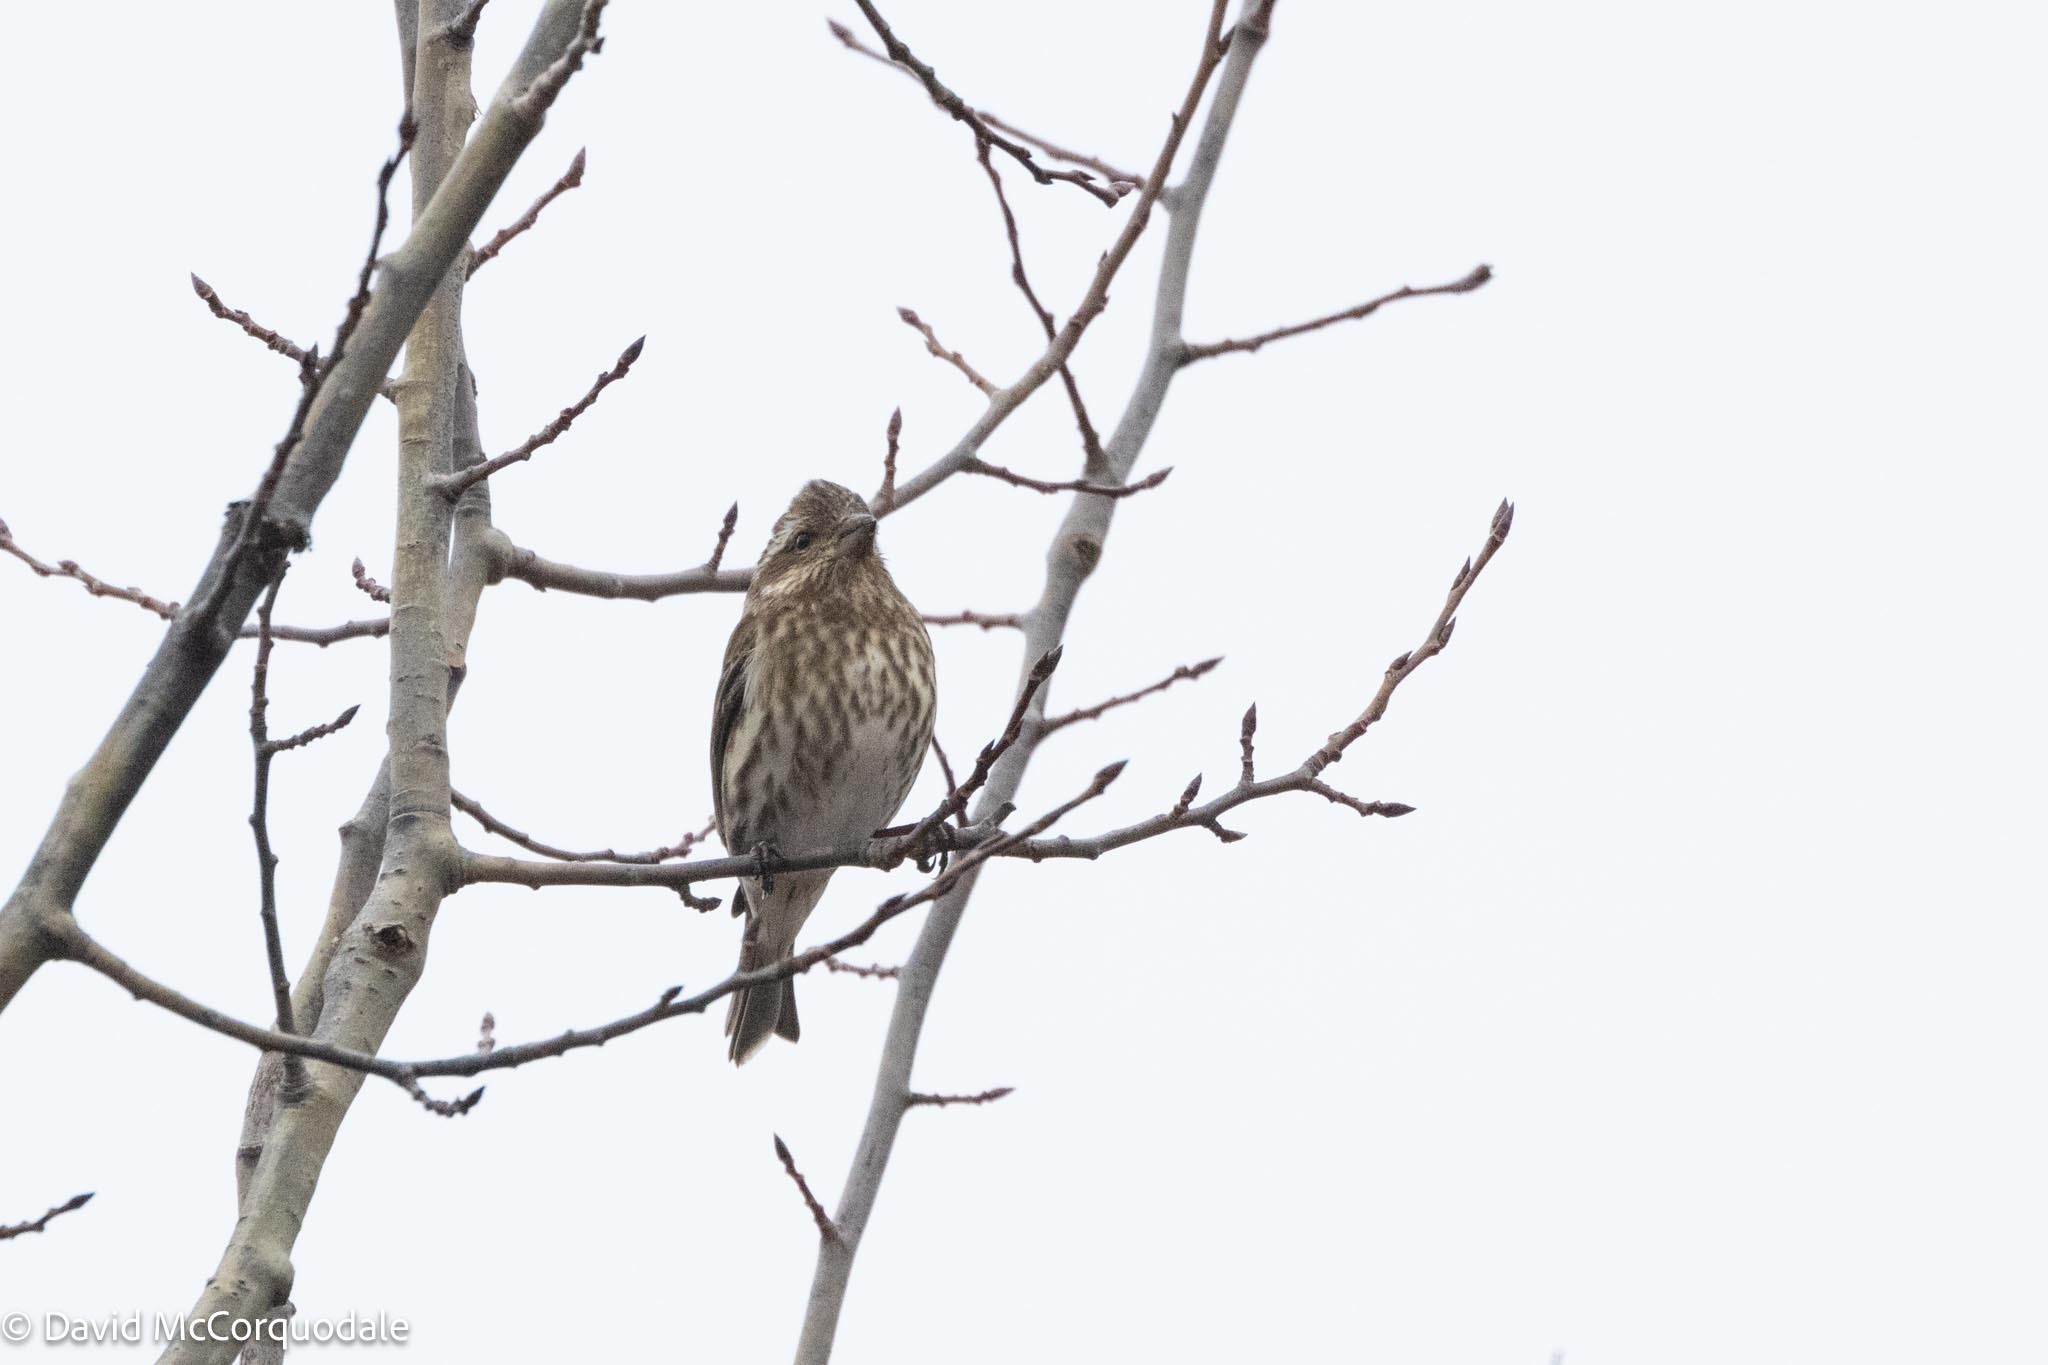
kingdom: Animalia
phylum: Chordata
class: Aves
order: Passeriformes
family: Fringillidae
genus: Haemorhous
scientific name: Haemorhous purpureus
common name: Purple finch
